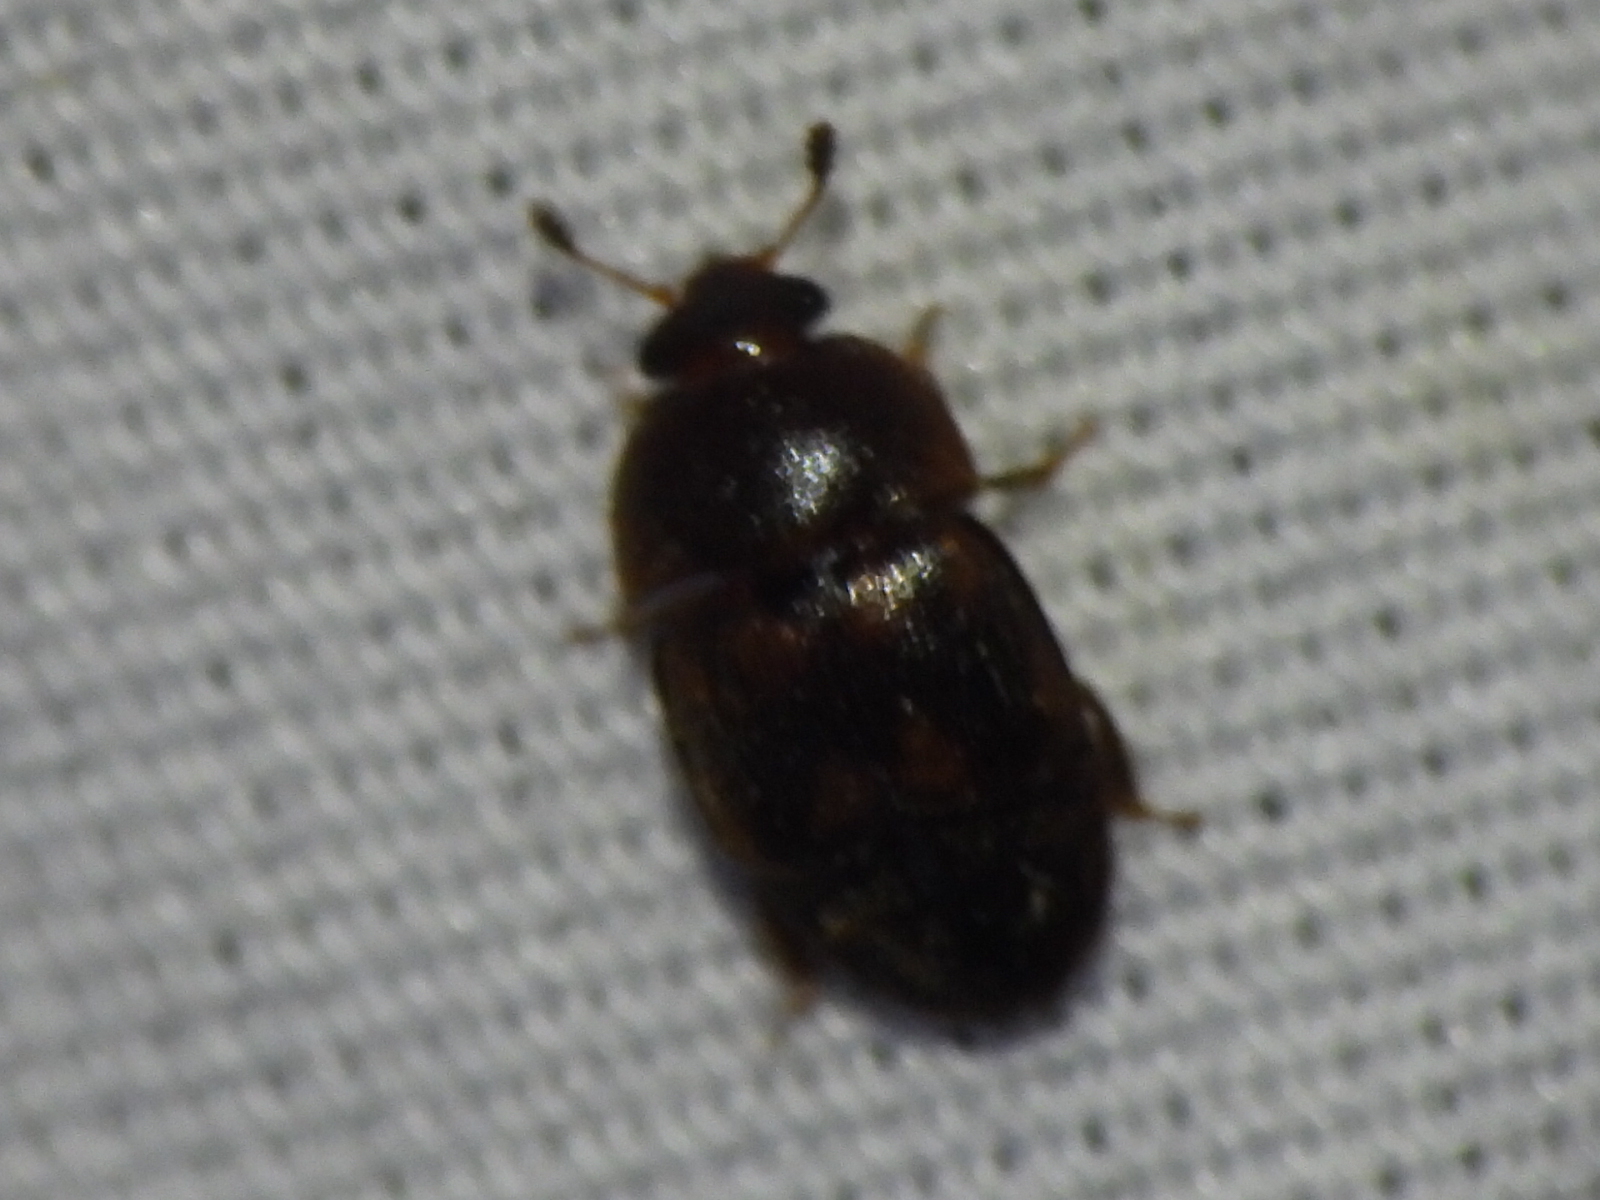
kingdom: Animalia
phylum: Arthropoda
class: Insecta
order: Coleoptera
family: Nitidulidae
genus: Colopterus
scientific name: Colopterus maculatus
